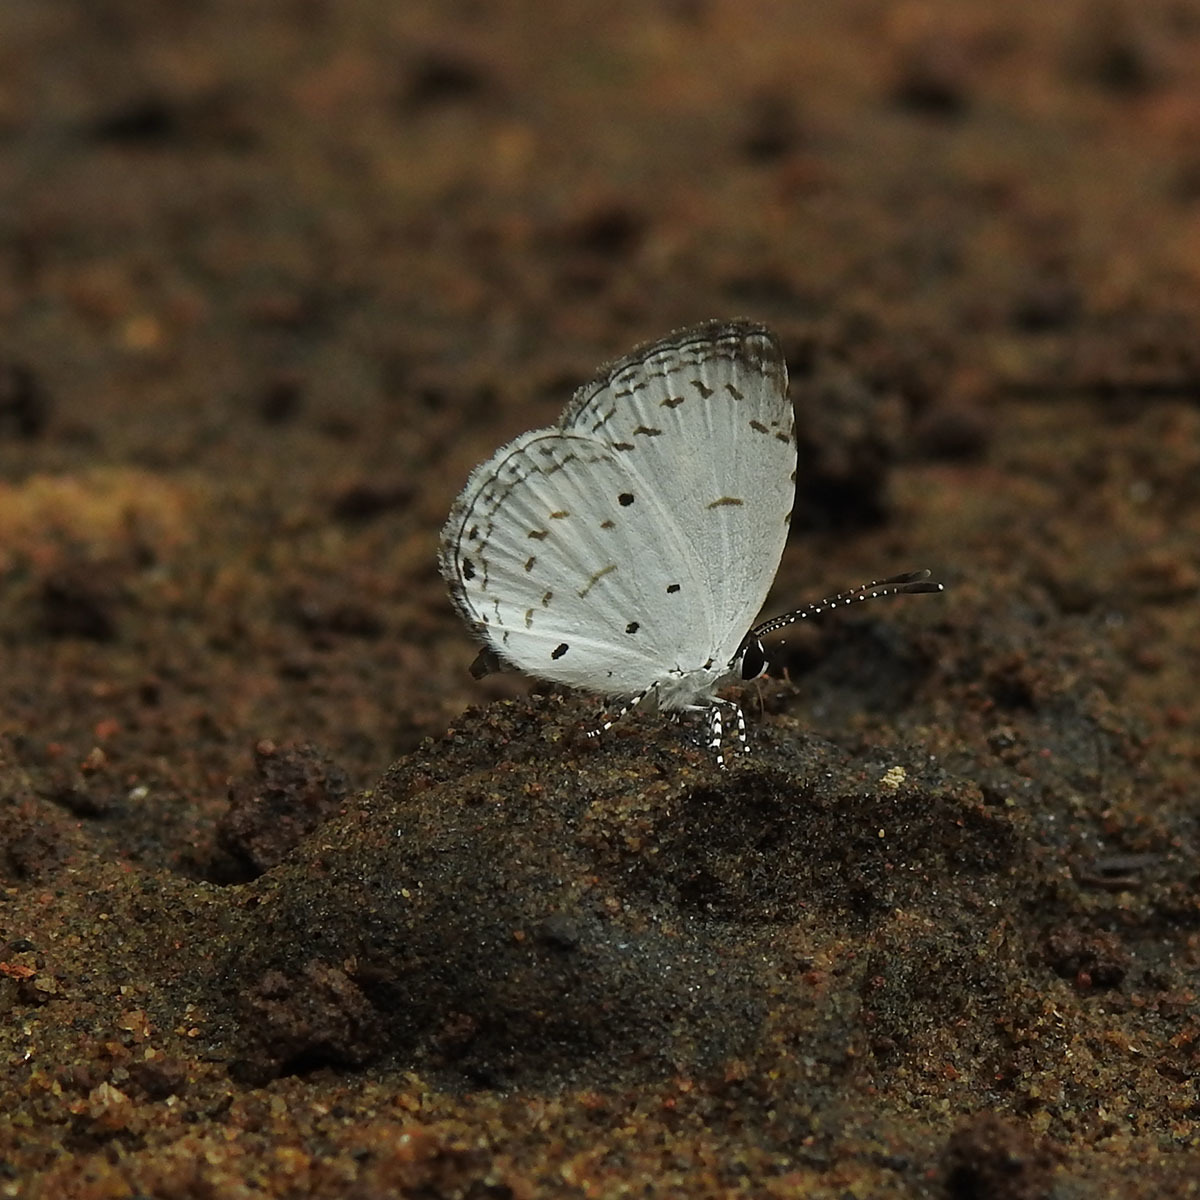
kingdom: Animalia
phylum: Arthropoda
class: Insecta
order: Lepidoptera
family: Lycaenidae
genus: Neopithecops
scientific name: Neopithecops zalmora
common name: Quaker
